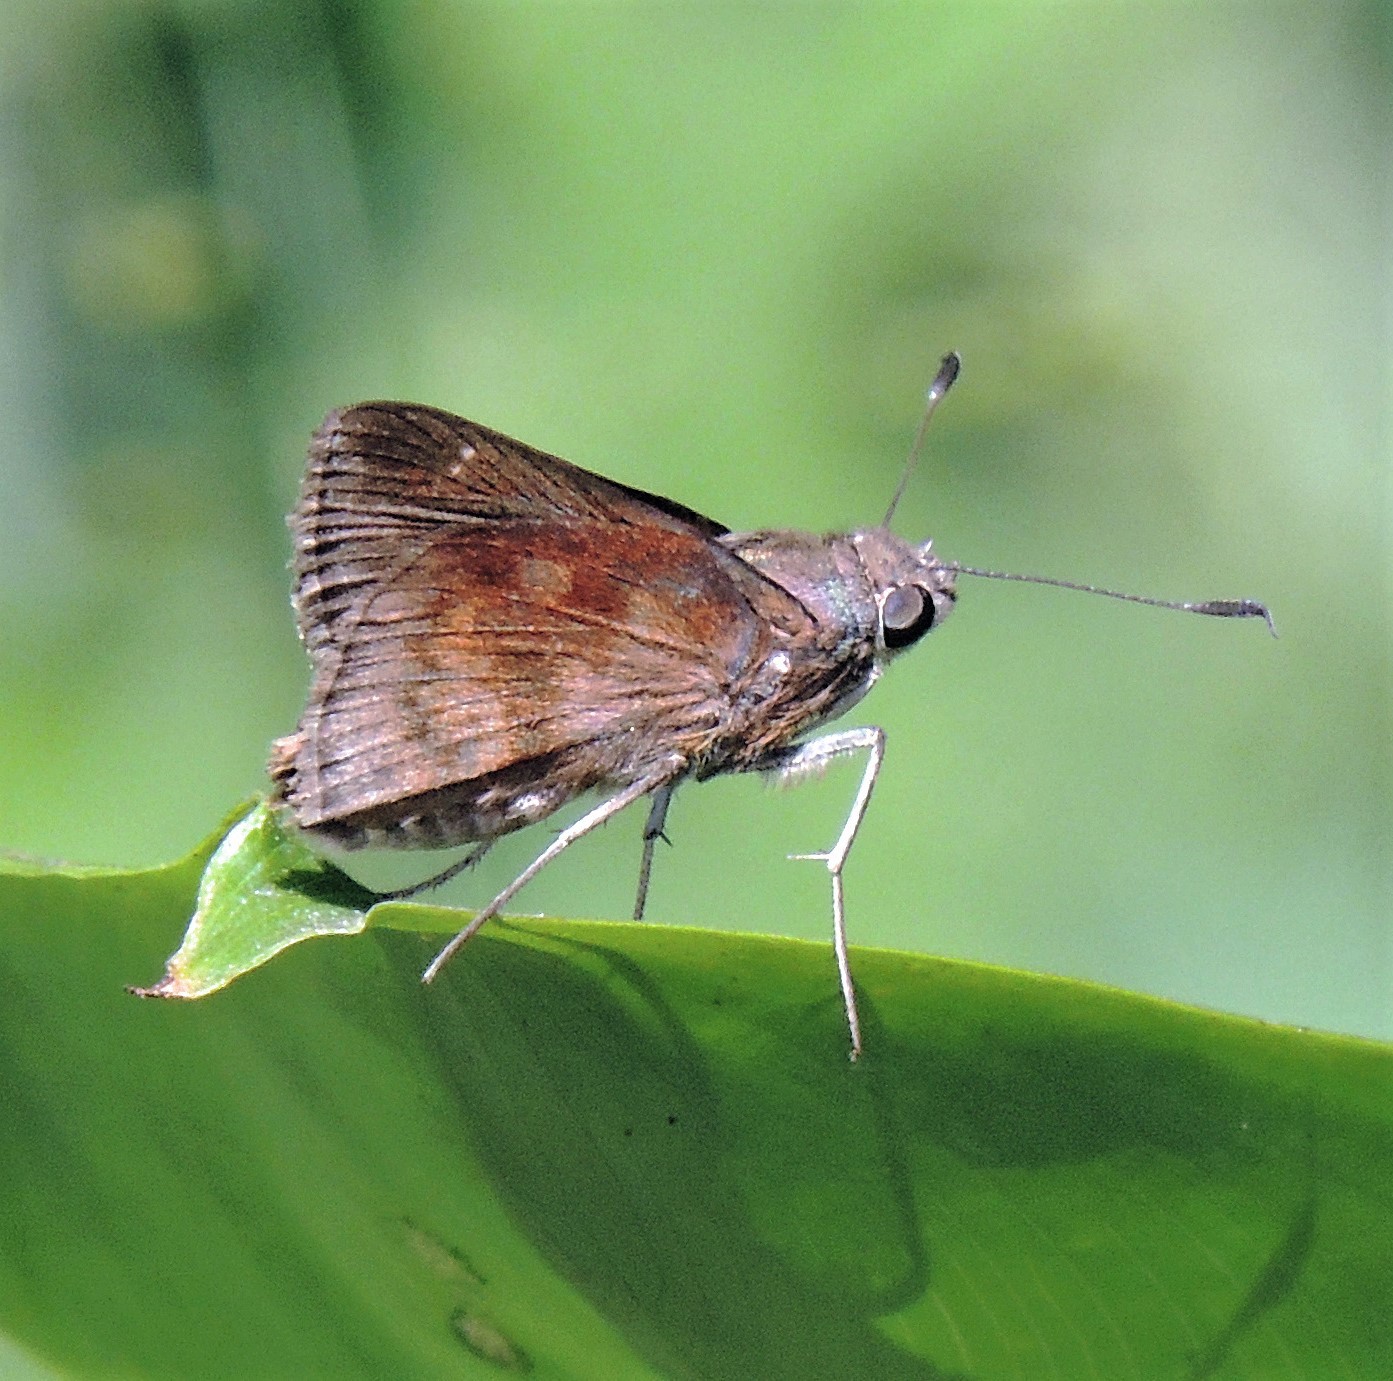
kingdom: Animalia
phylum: Arthropoda
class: Insecta
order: Lepidoptera
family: Hesperiidae
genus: Quinta
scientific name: Quinta cannae
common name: Canna skipper
